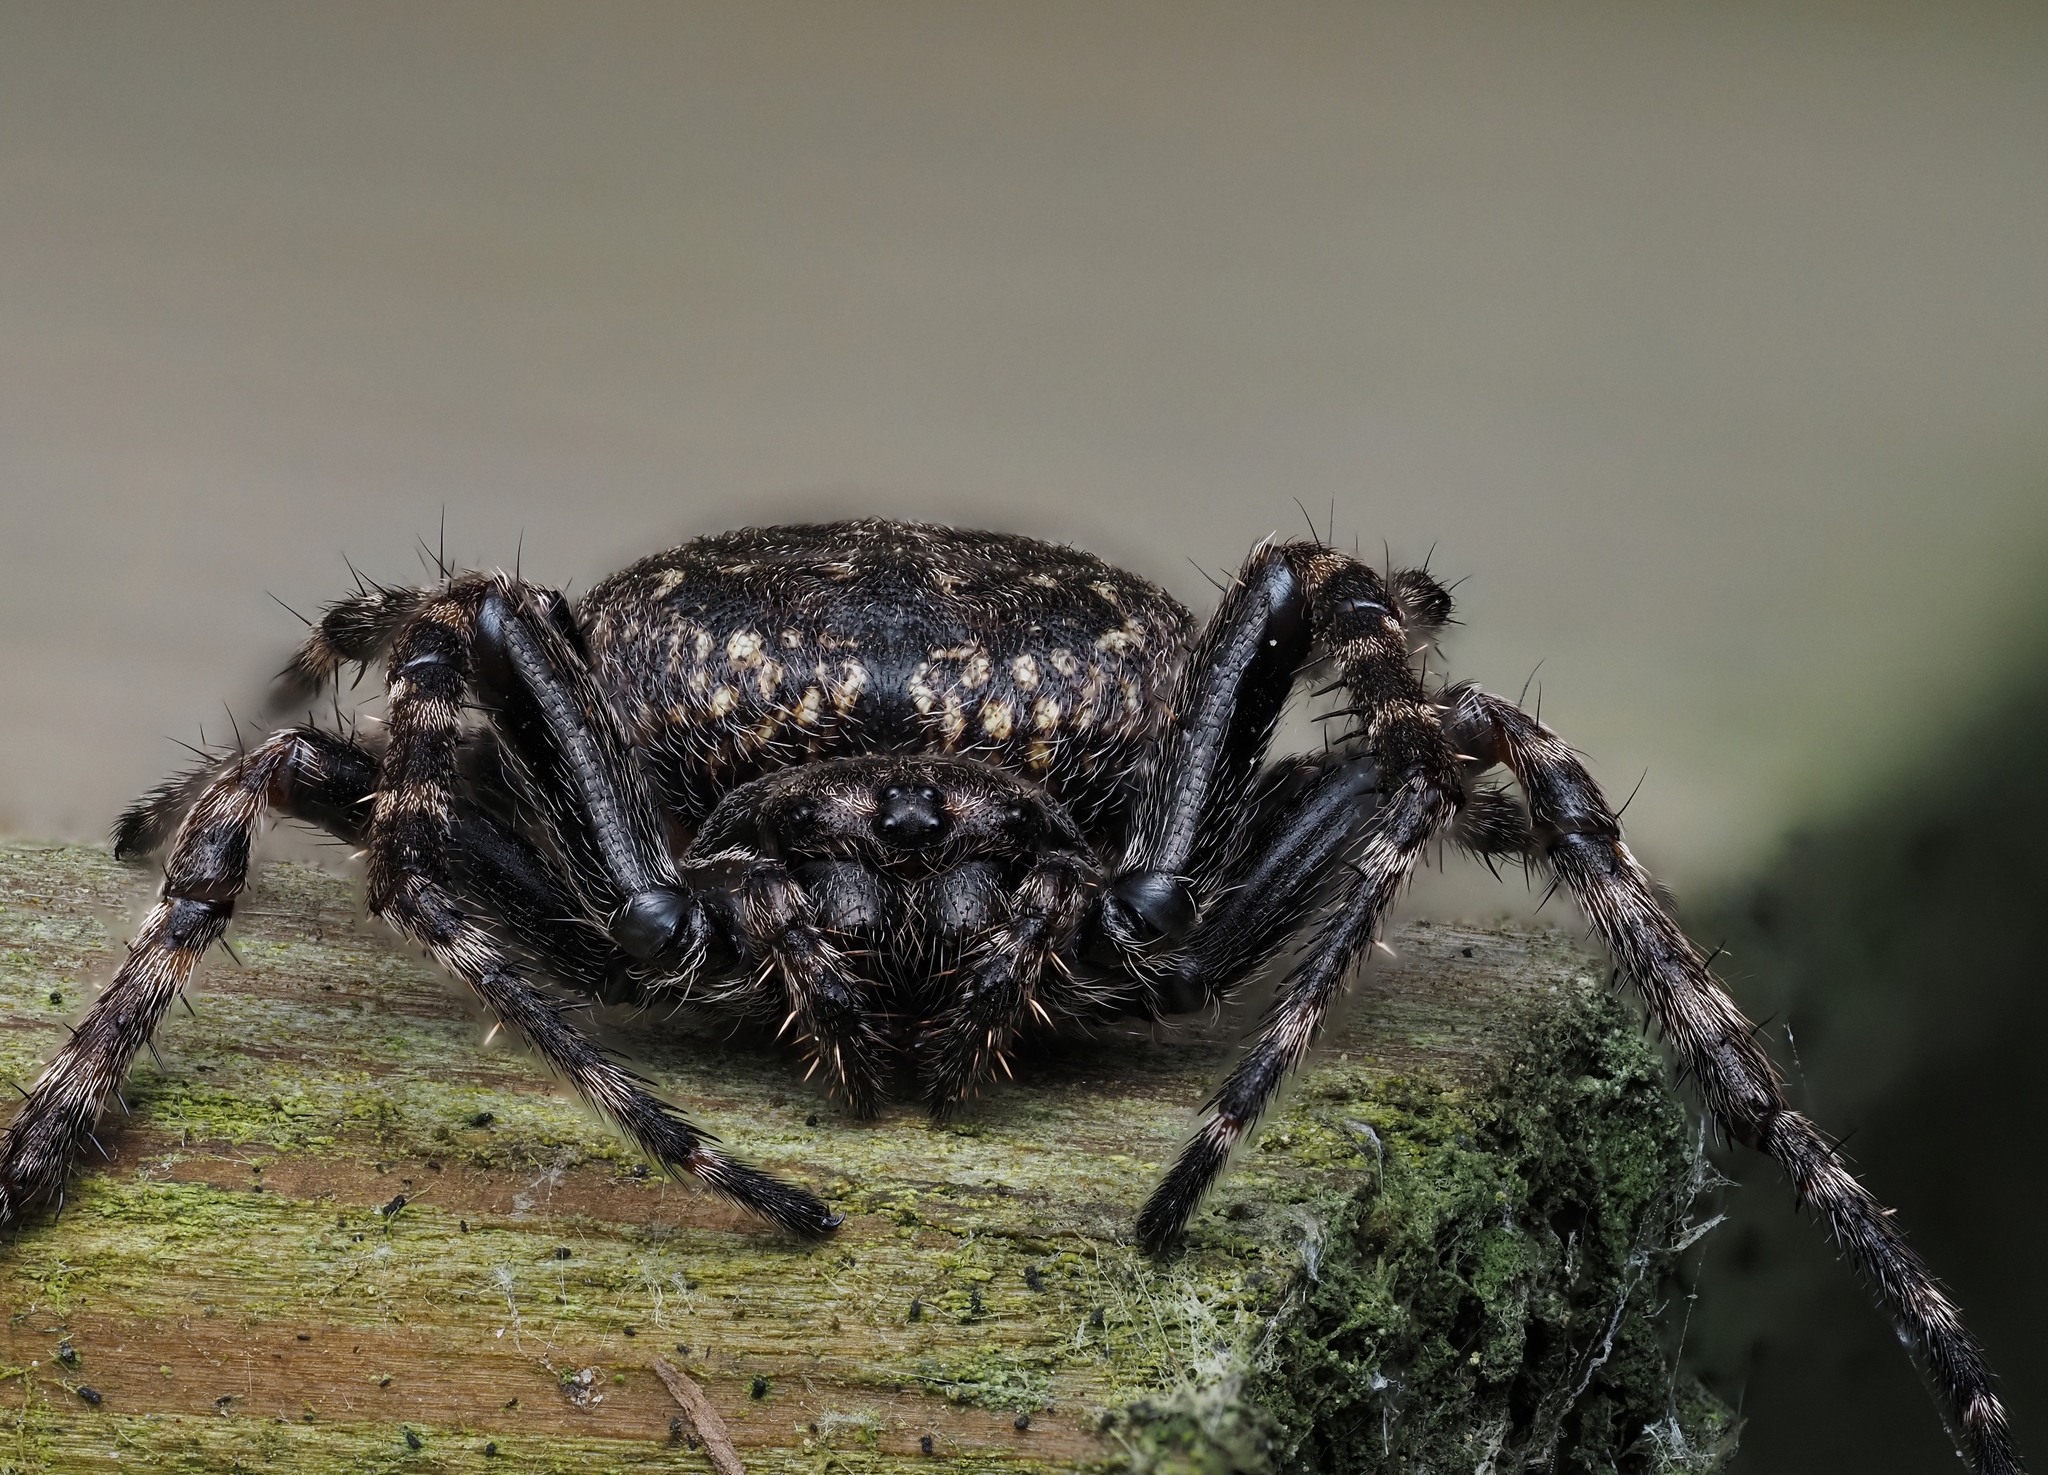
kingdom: Animalia
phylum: Arthropoda
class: Arachnida
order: Araneae
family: Araneidae
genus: Nuctenea
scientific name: Nuctenea umbratica
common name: Toad spider
